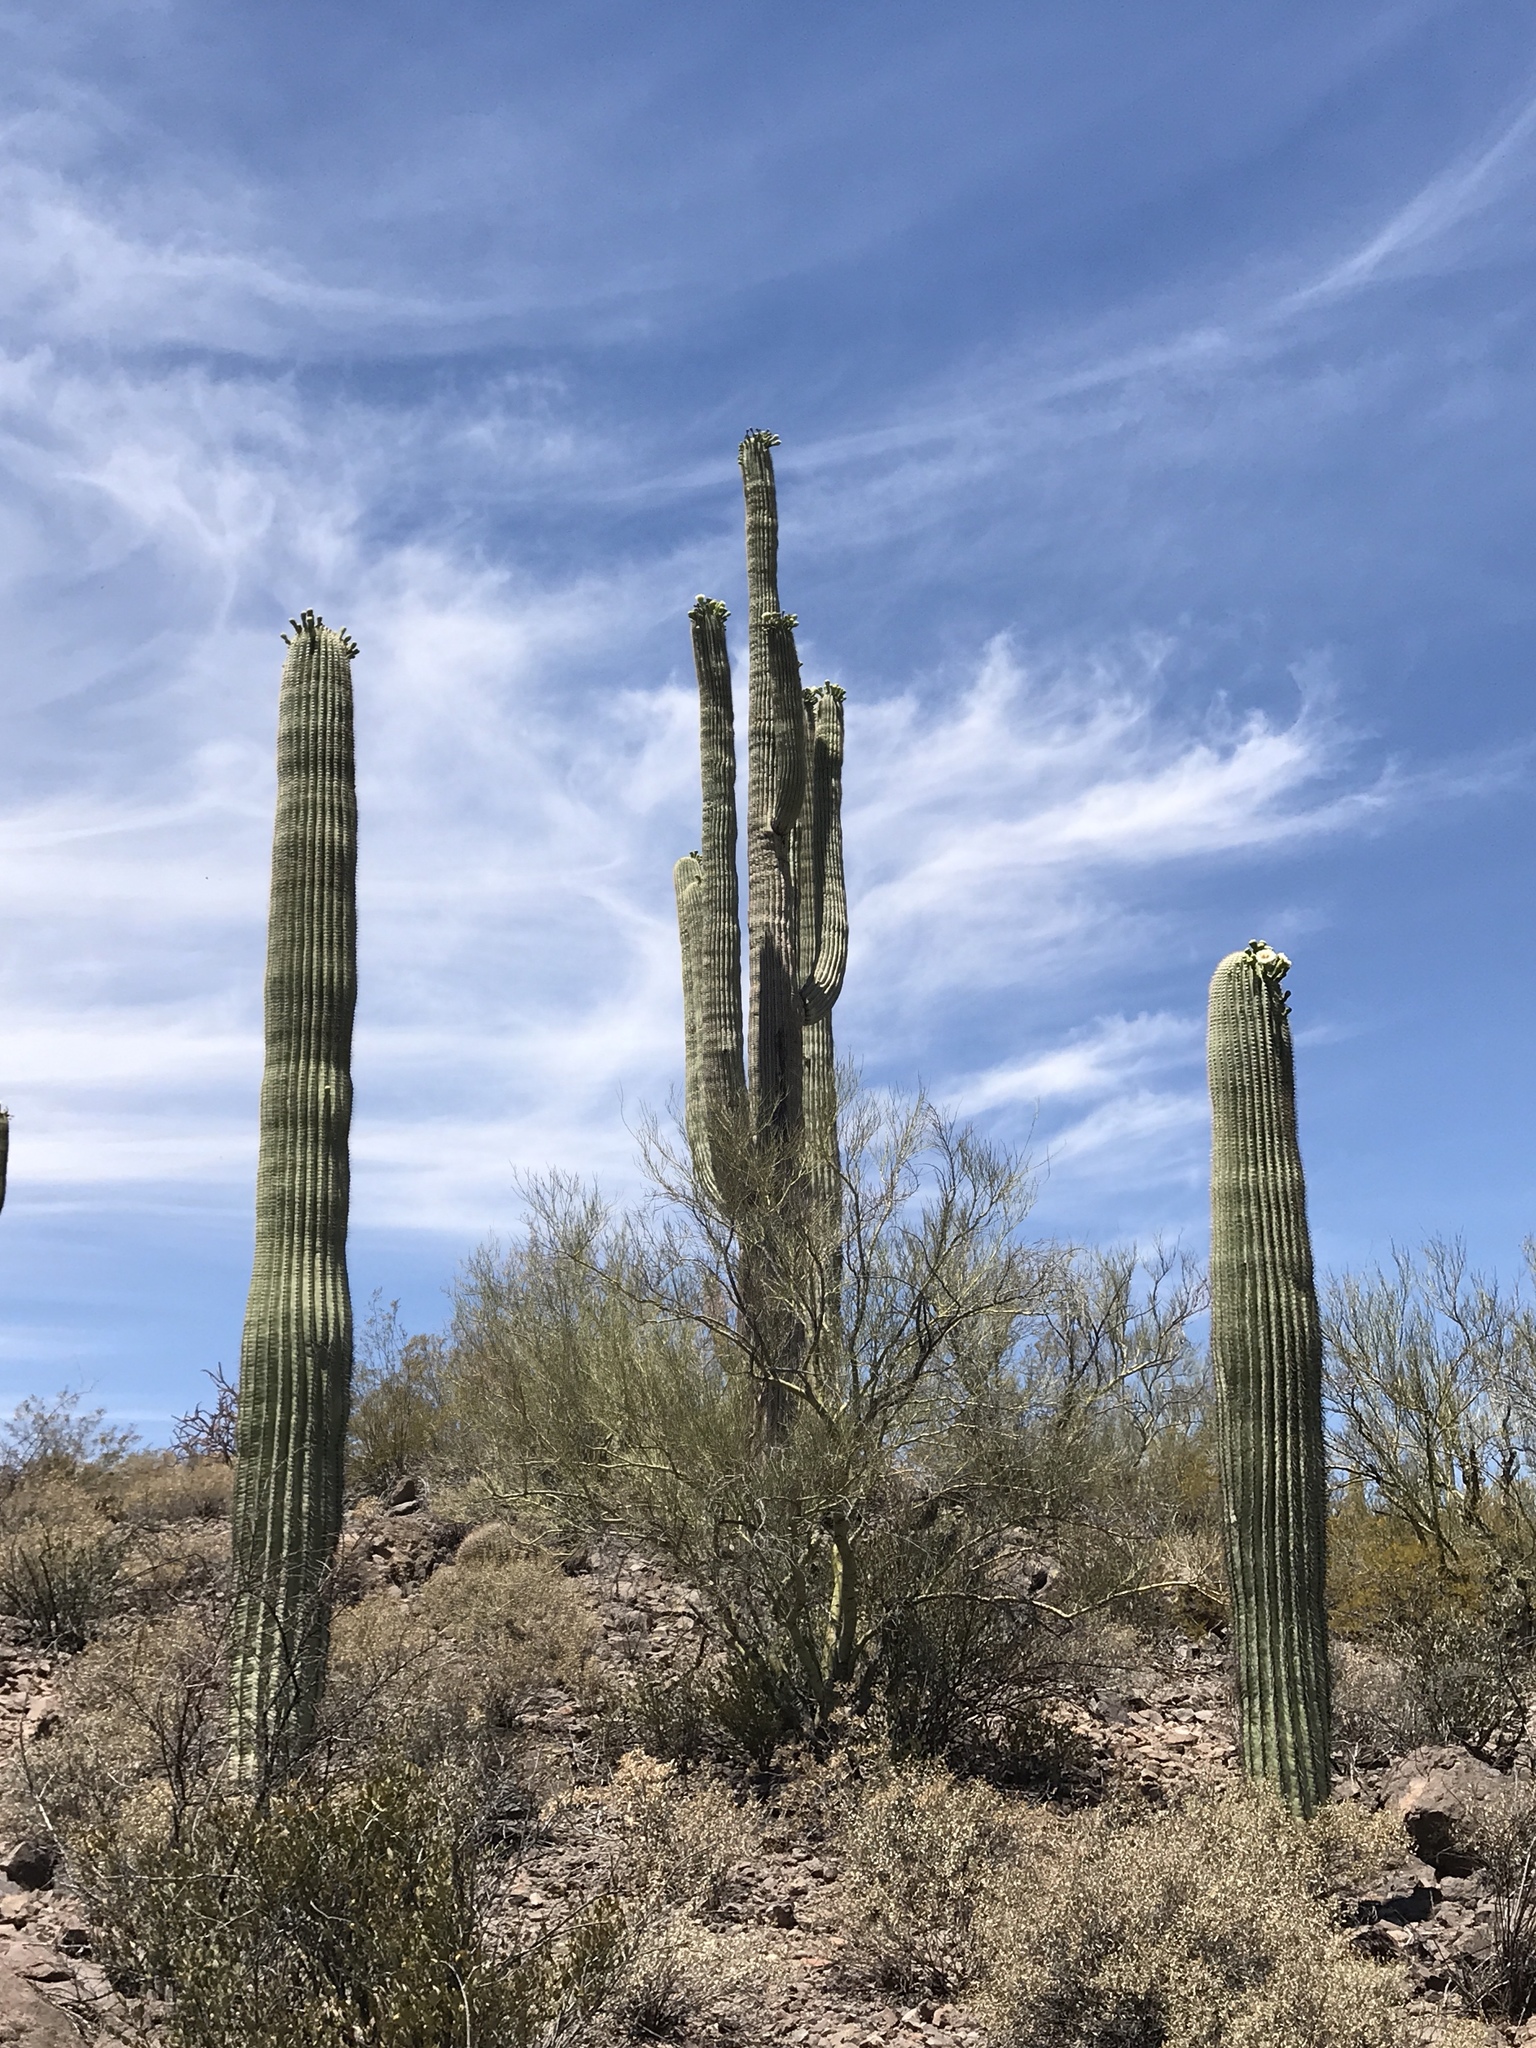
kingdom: Plantae
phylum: Tracheophyta
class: Magnoliopsida
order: Caryophyllales
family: Cactaceae
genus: Carnegiea
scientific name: Carnegiea gigantea
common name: Saguaro
